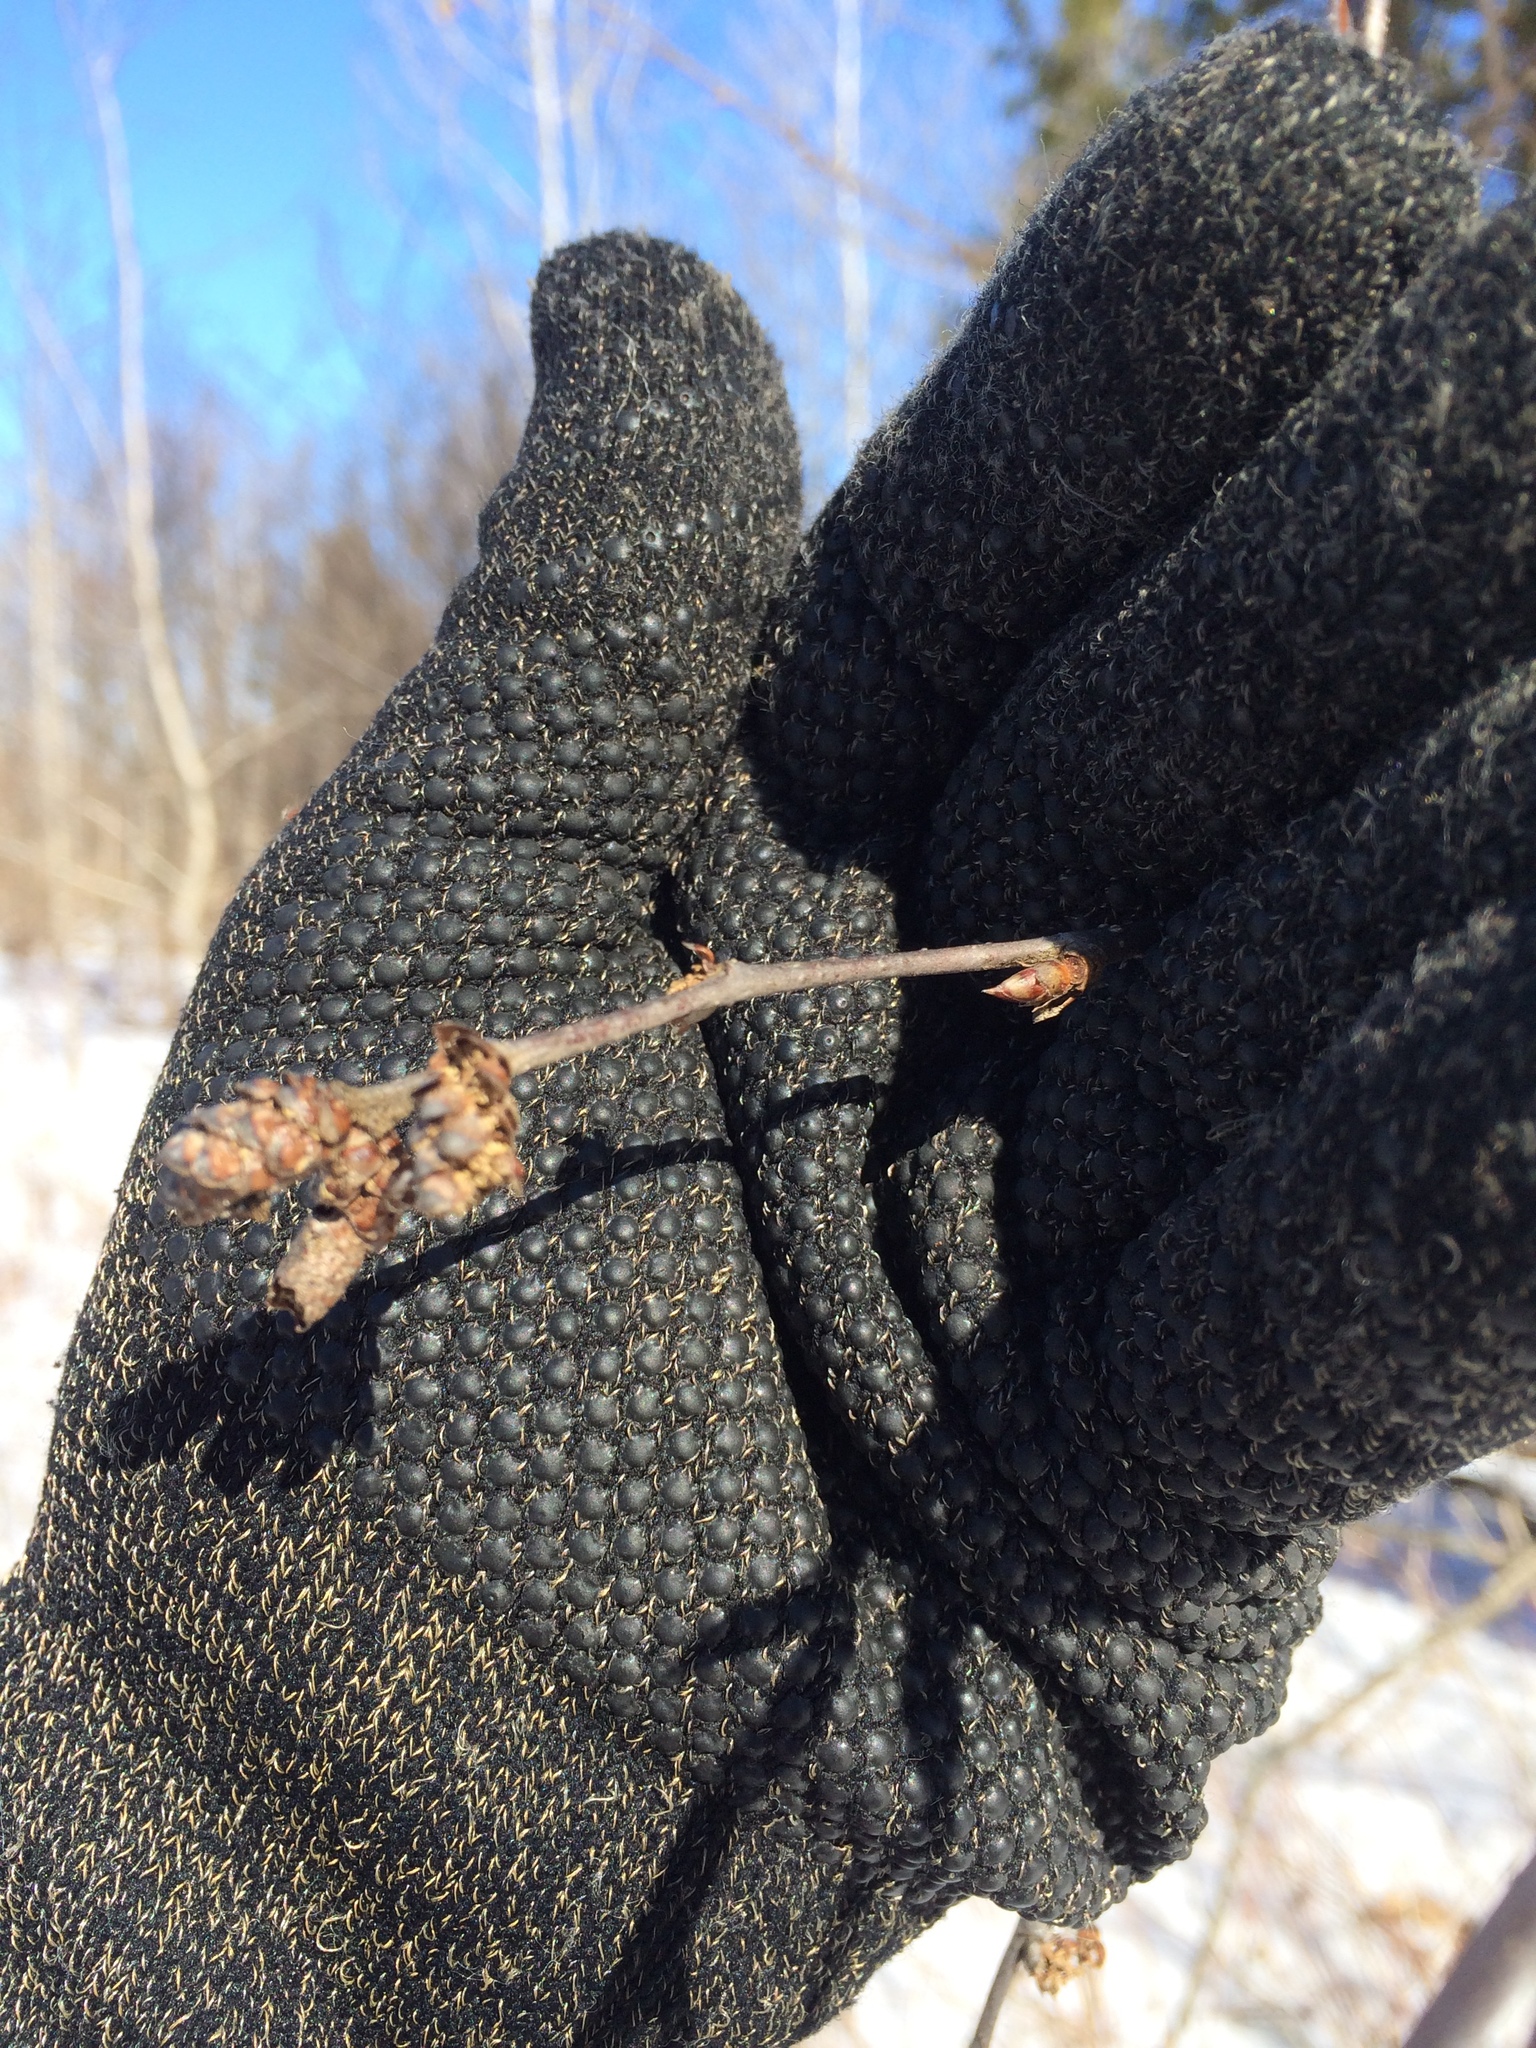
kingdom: Plantae
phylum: Tracheophyta
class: Magnoliopsida
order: Fagales
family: Betulaceae
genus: Betula
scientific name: Betula alleghaniensis
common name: Yellow birch
